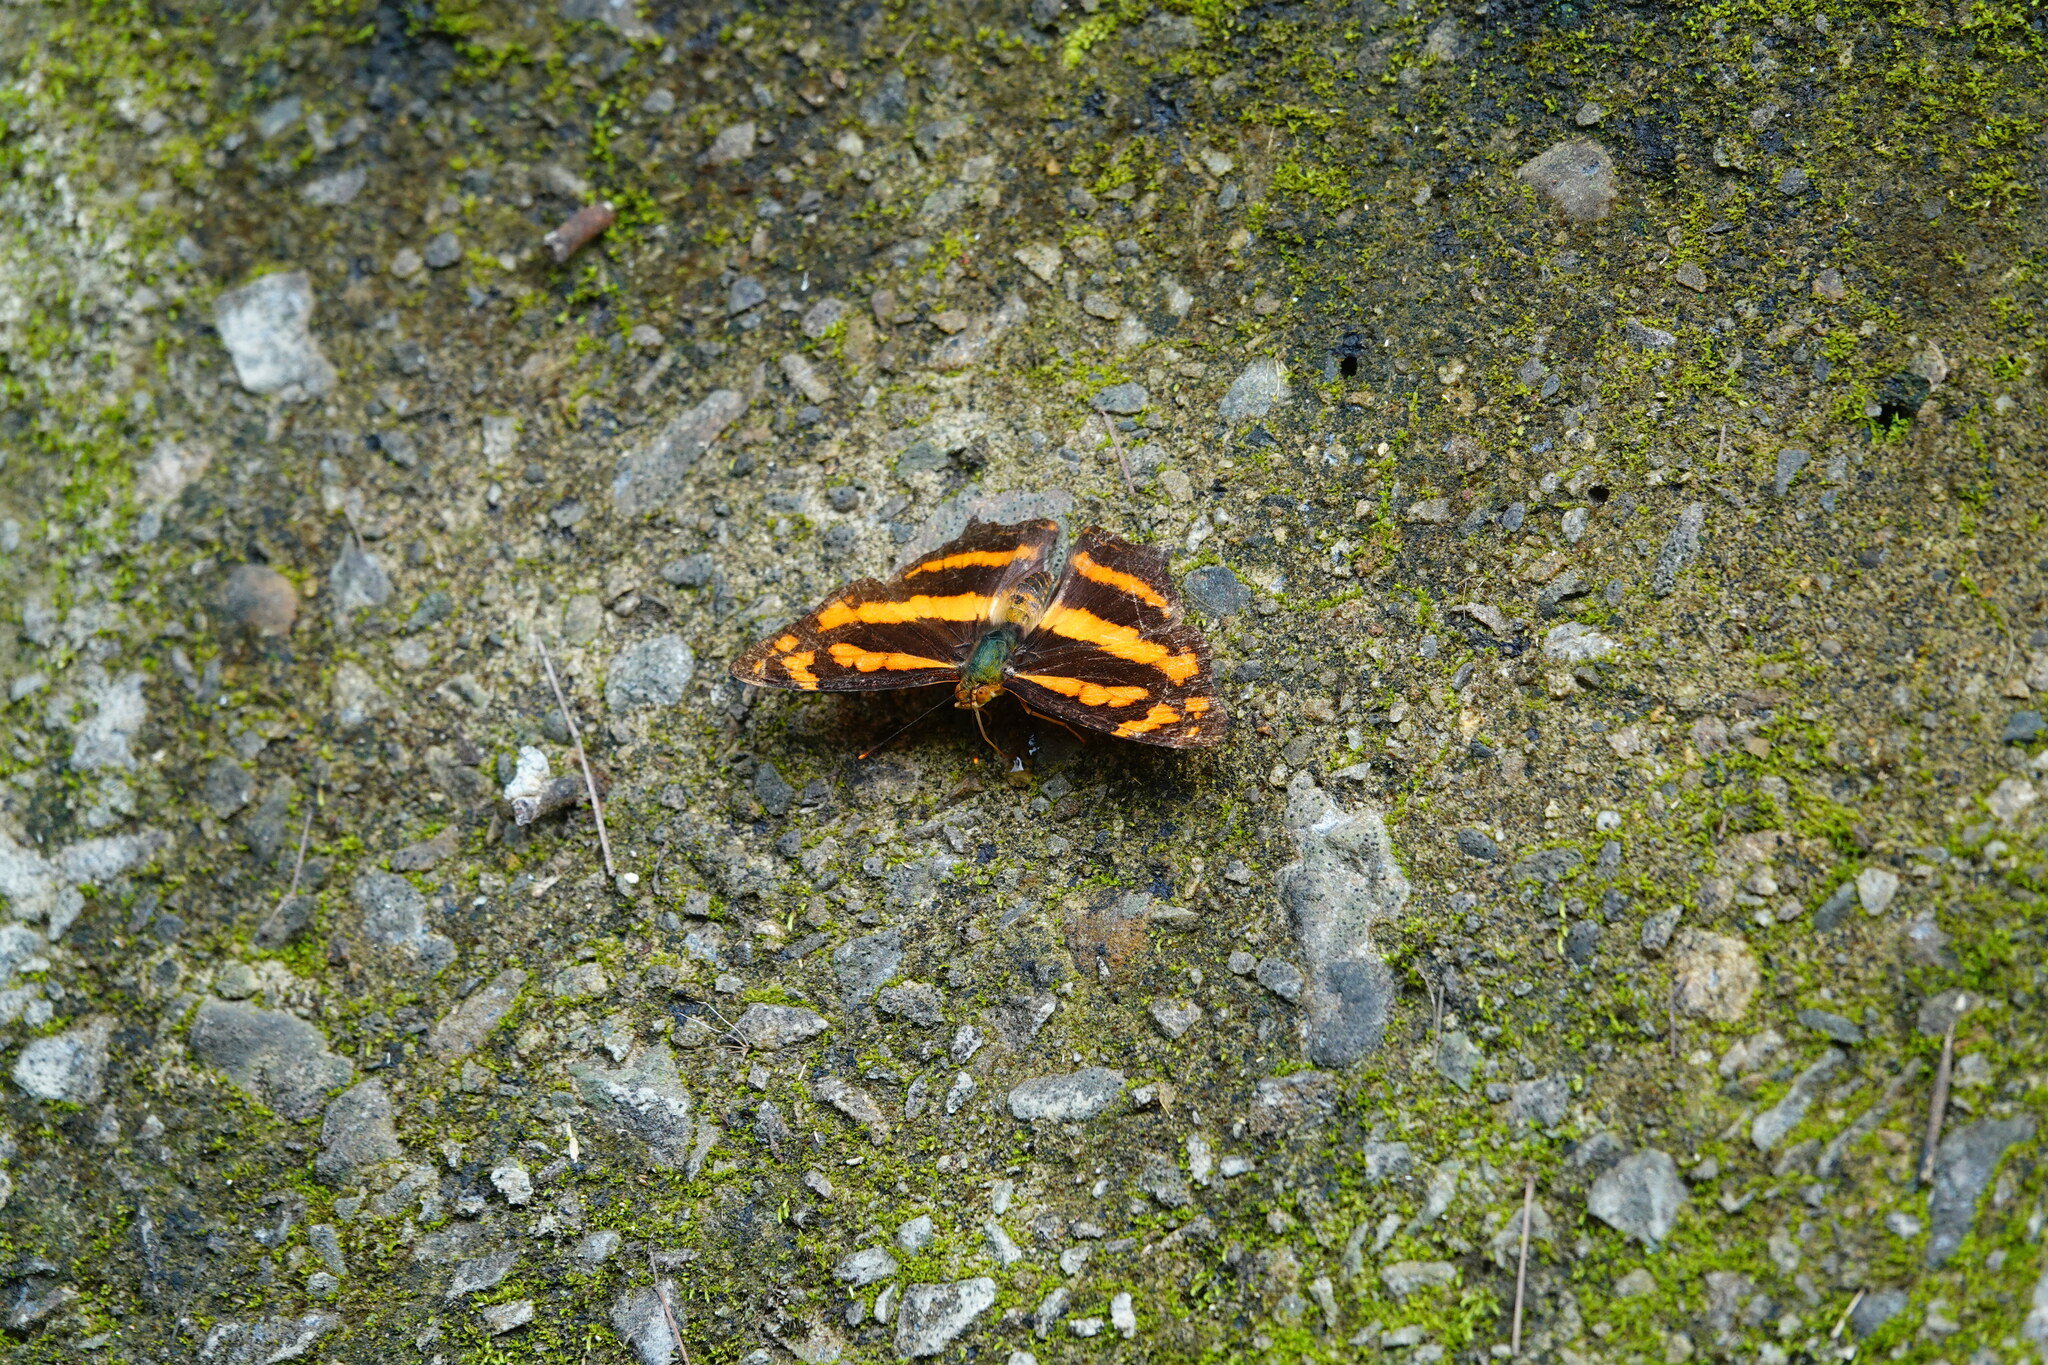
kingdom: Animalia
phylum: Arthropoda
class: Insecta
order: Lepidoptera
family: Nymphalidae
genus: Symbrenthia
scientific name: Symbrenthia hypselis
